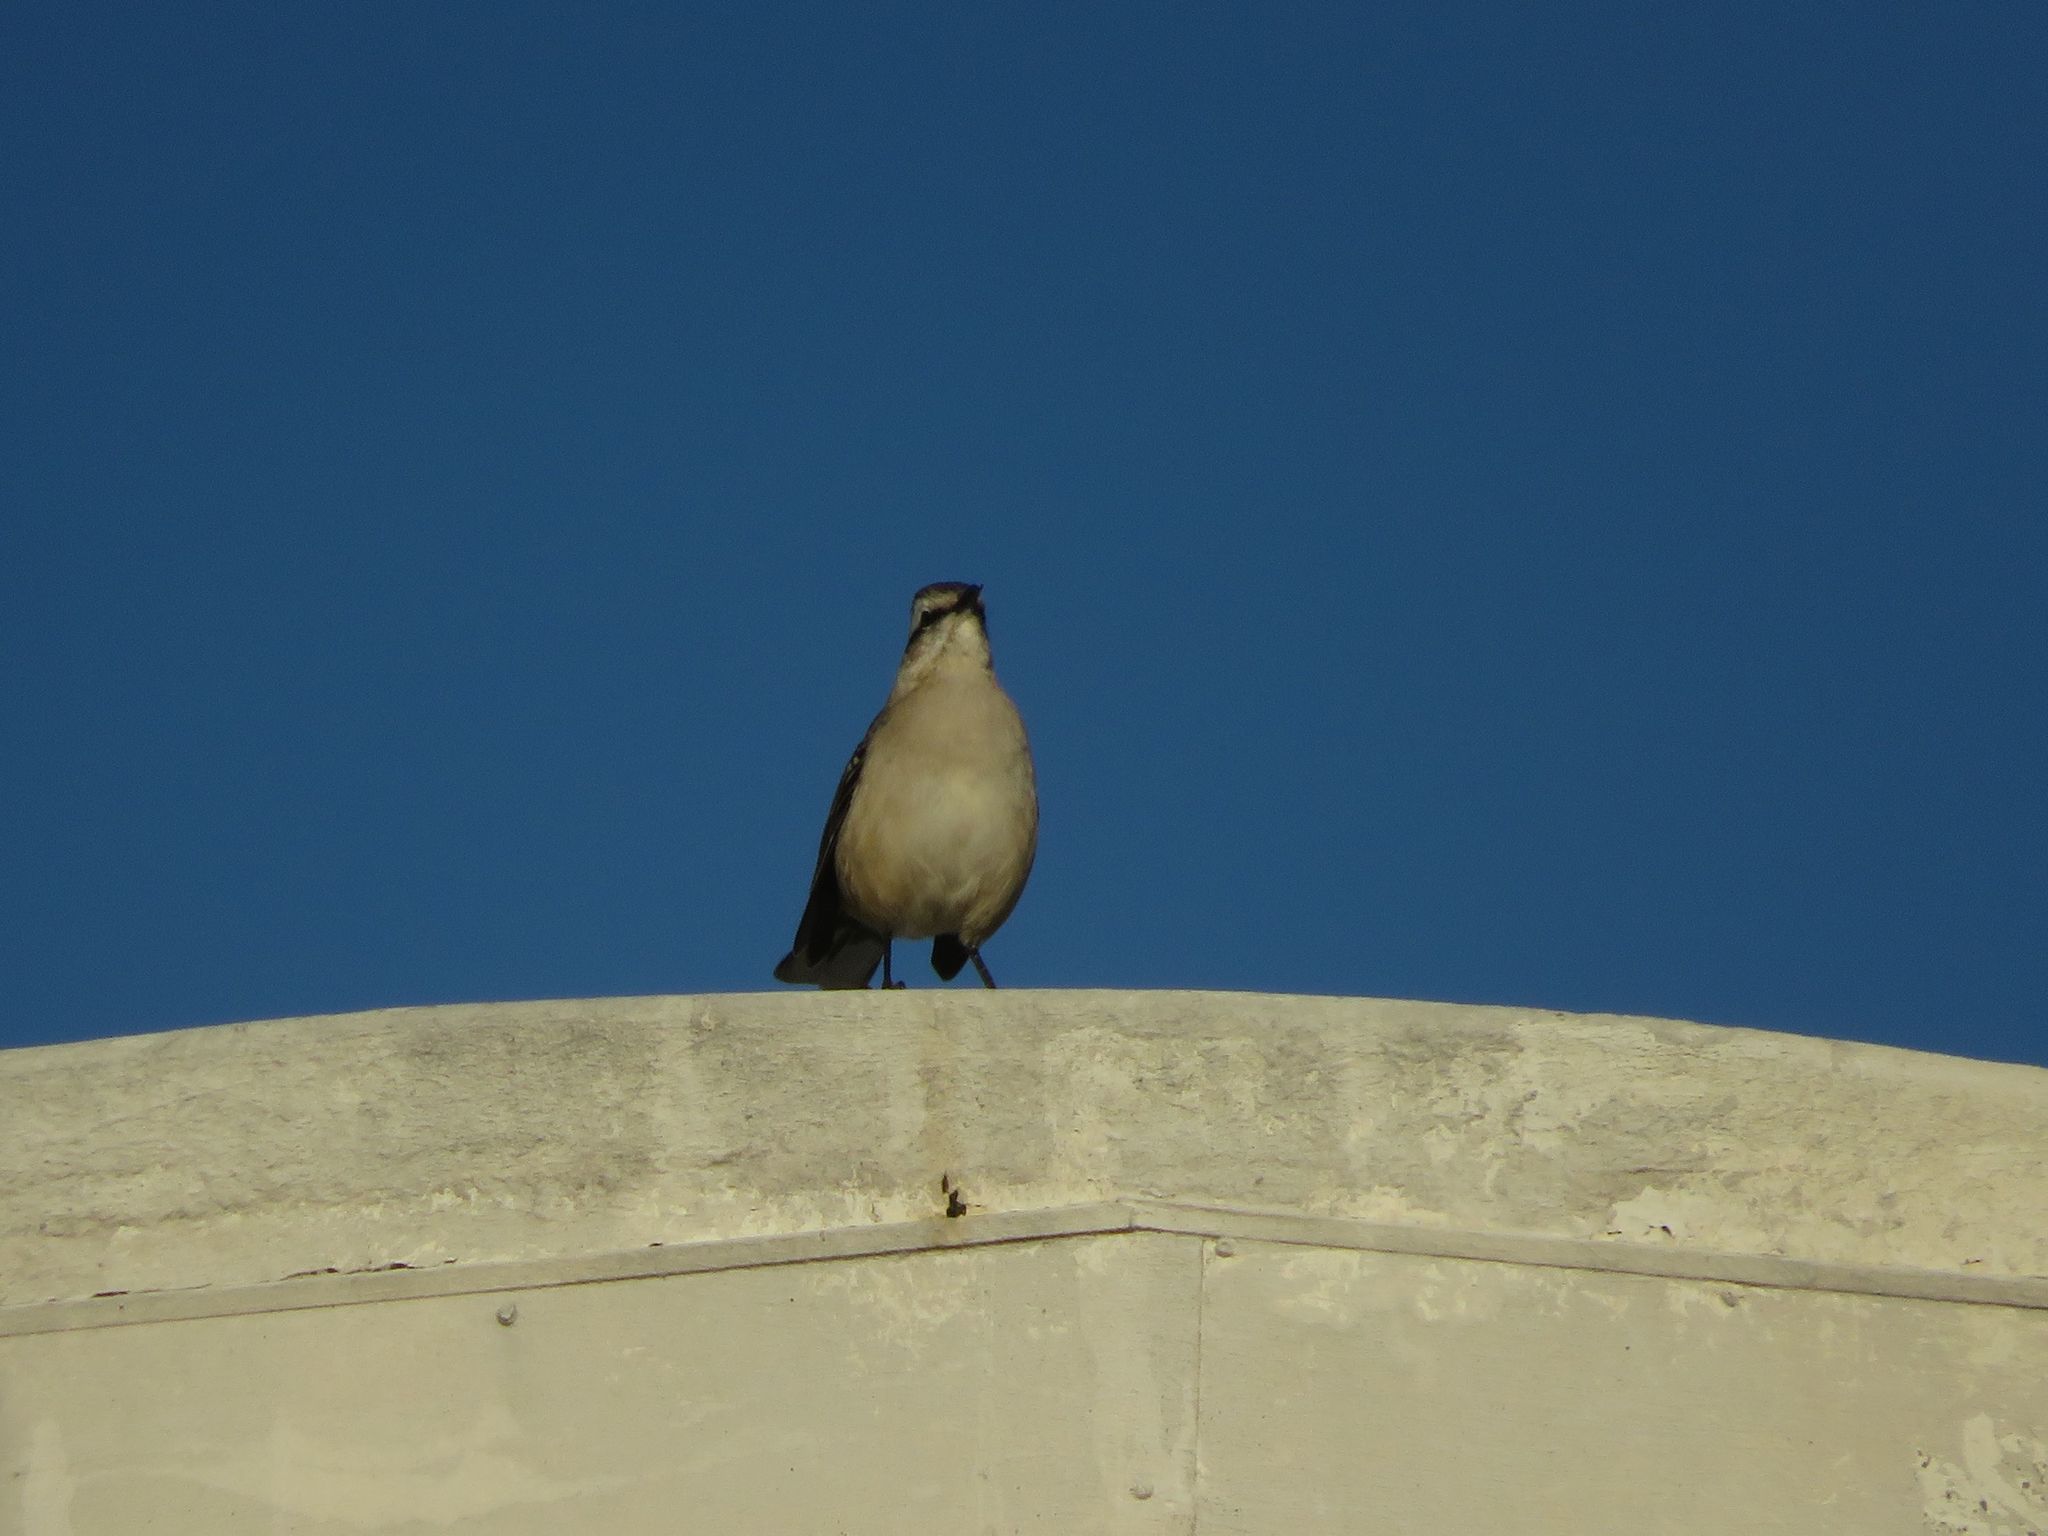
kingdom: Animalia
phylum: Chordata
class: Aves
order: Passeriformes
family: Mimidae
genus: Mimus
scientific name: Mimus saturninus
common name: Chalk-browed mockingbird
